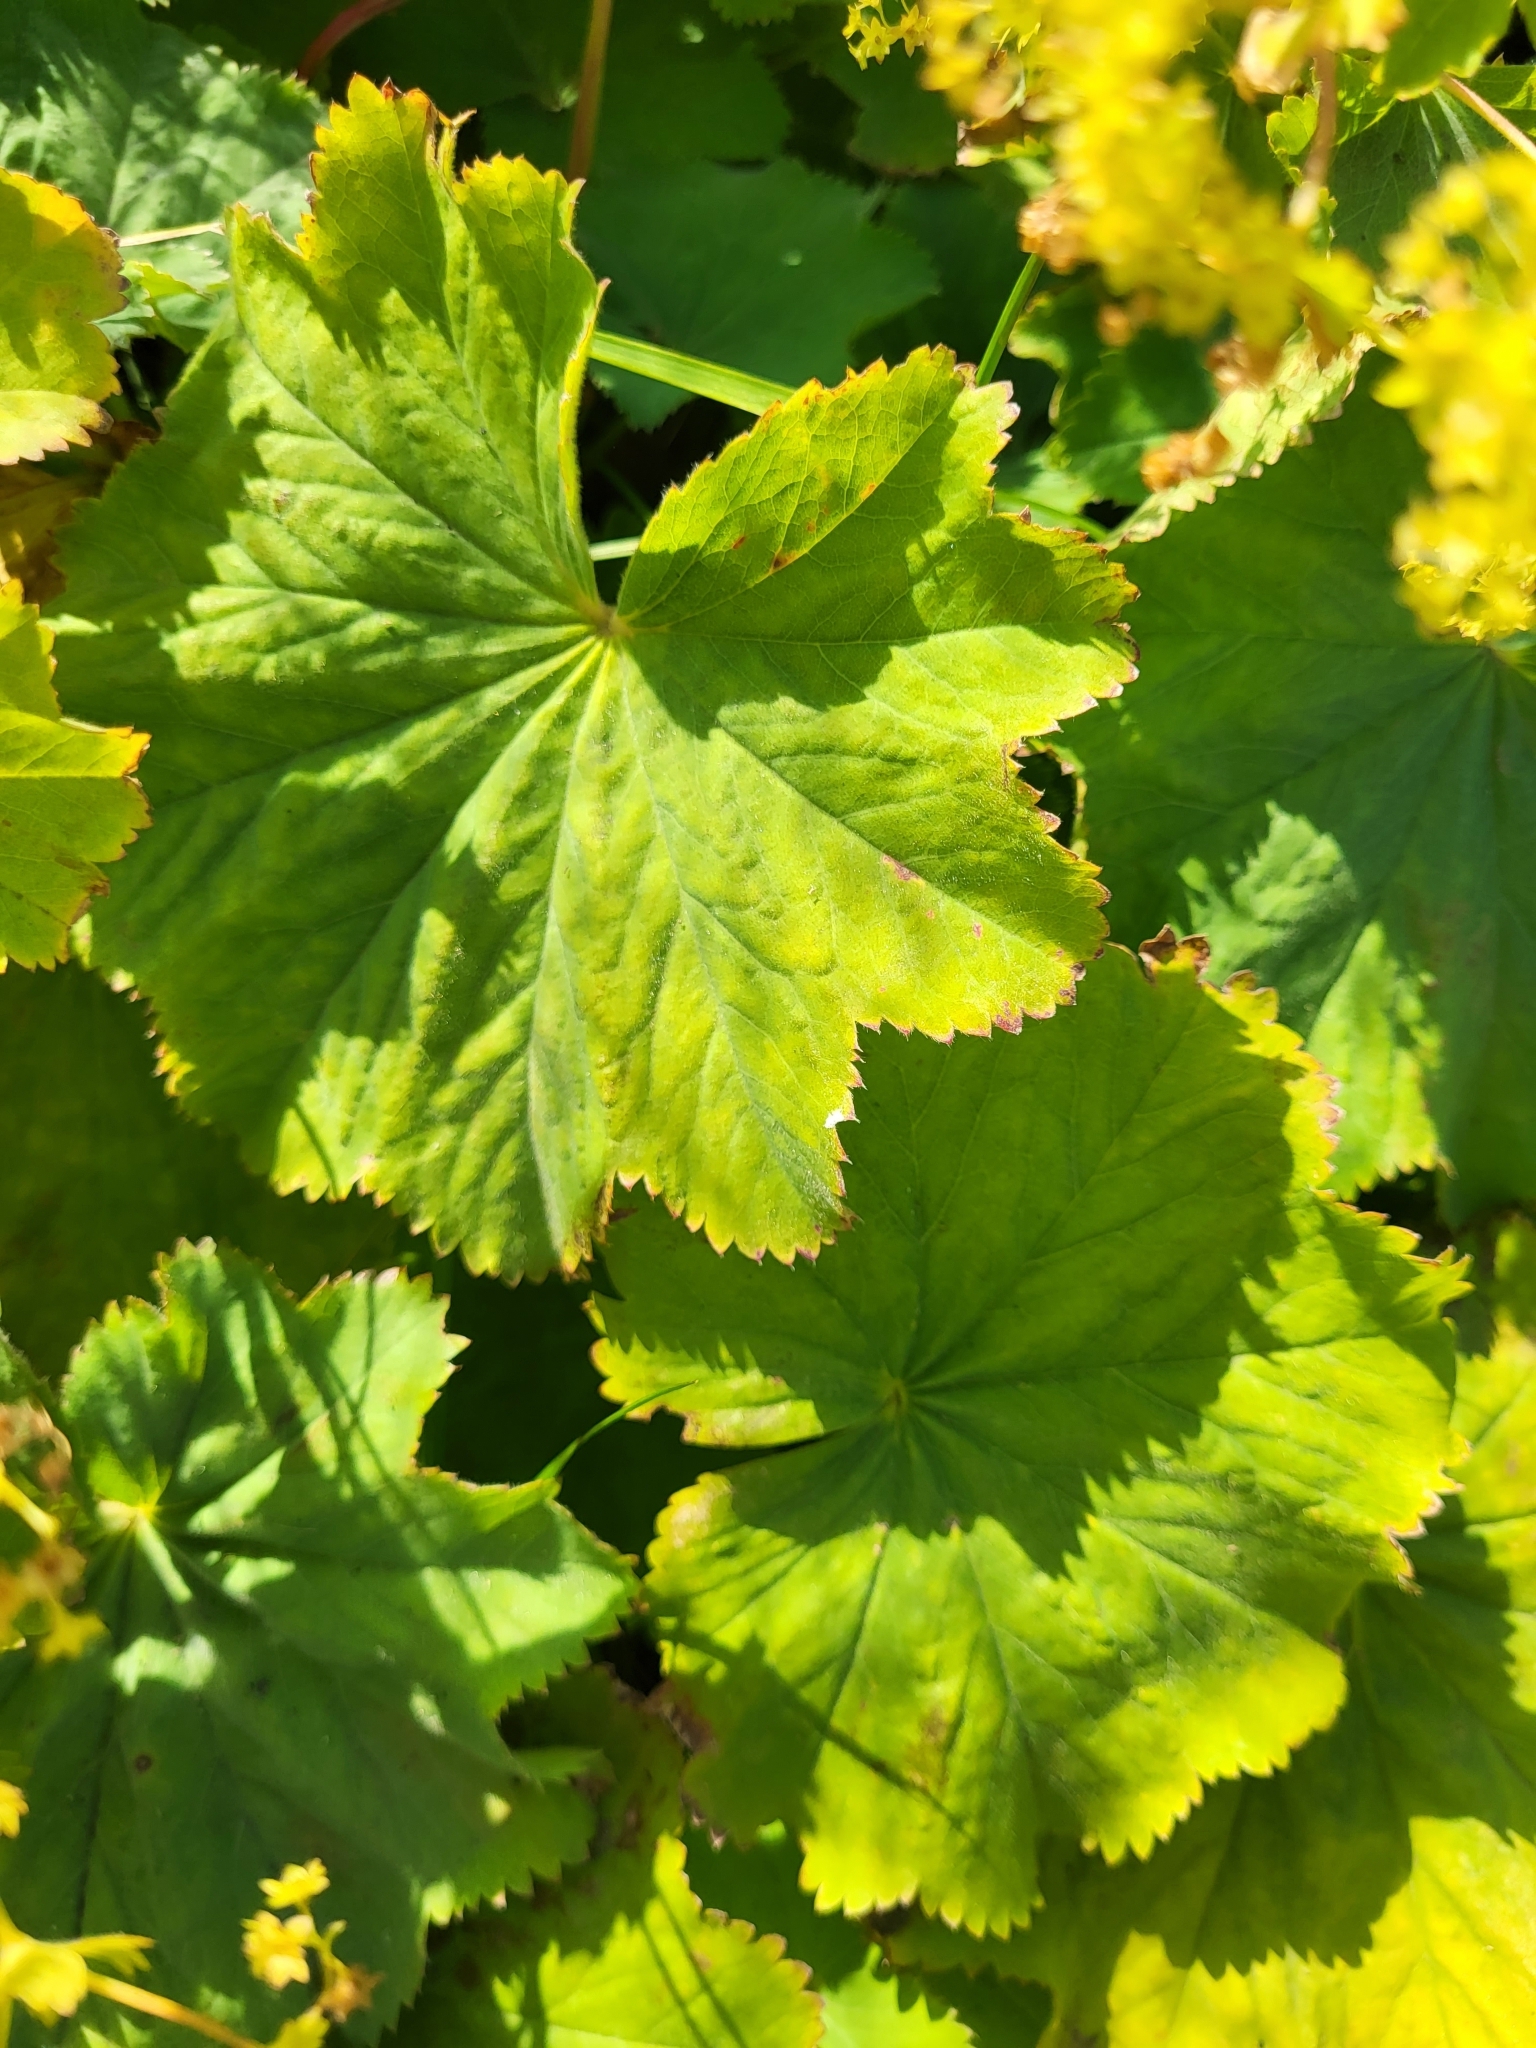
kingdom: Plantae
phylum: Tracheophyta
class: Magnoliopsida
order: Rosales
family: Rosaceae
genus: Alchemilla
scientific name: Alchemilla mollis
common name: Lady's-mantle
